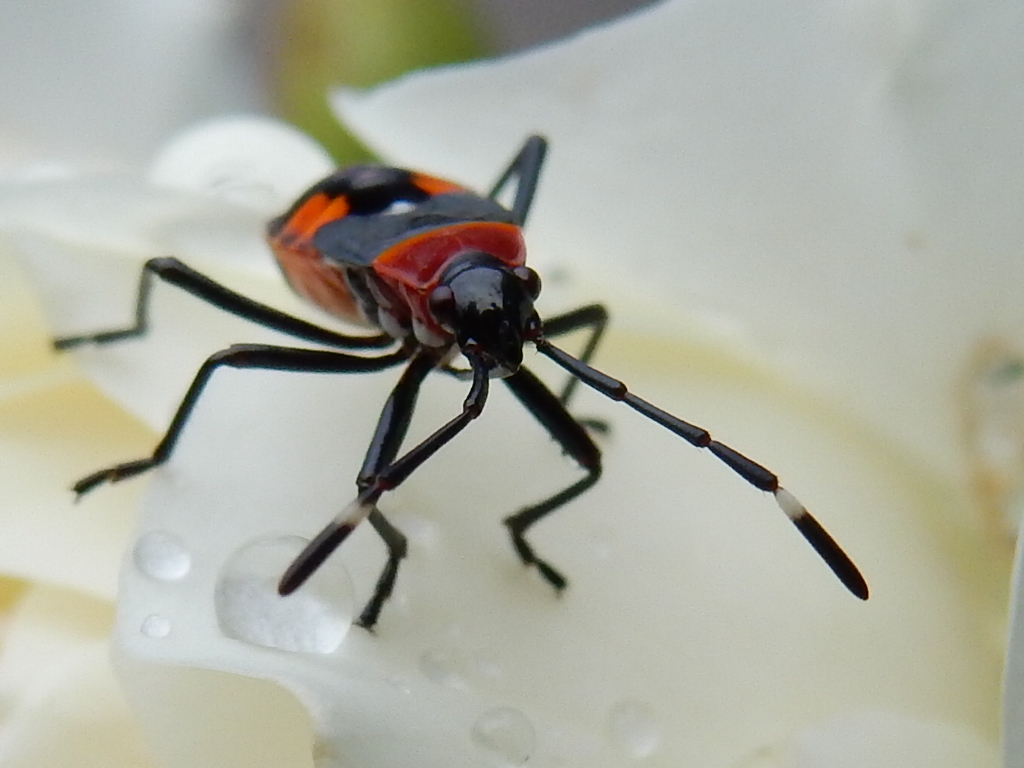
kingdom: Animalia
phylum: Arthropoda
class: Insecta
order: Hemiptera
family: Pyrrhocoridae
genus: Dindymus
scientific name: Dindymus
